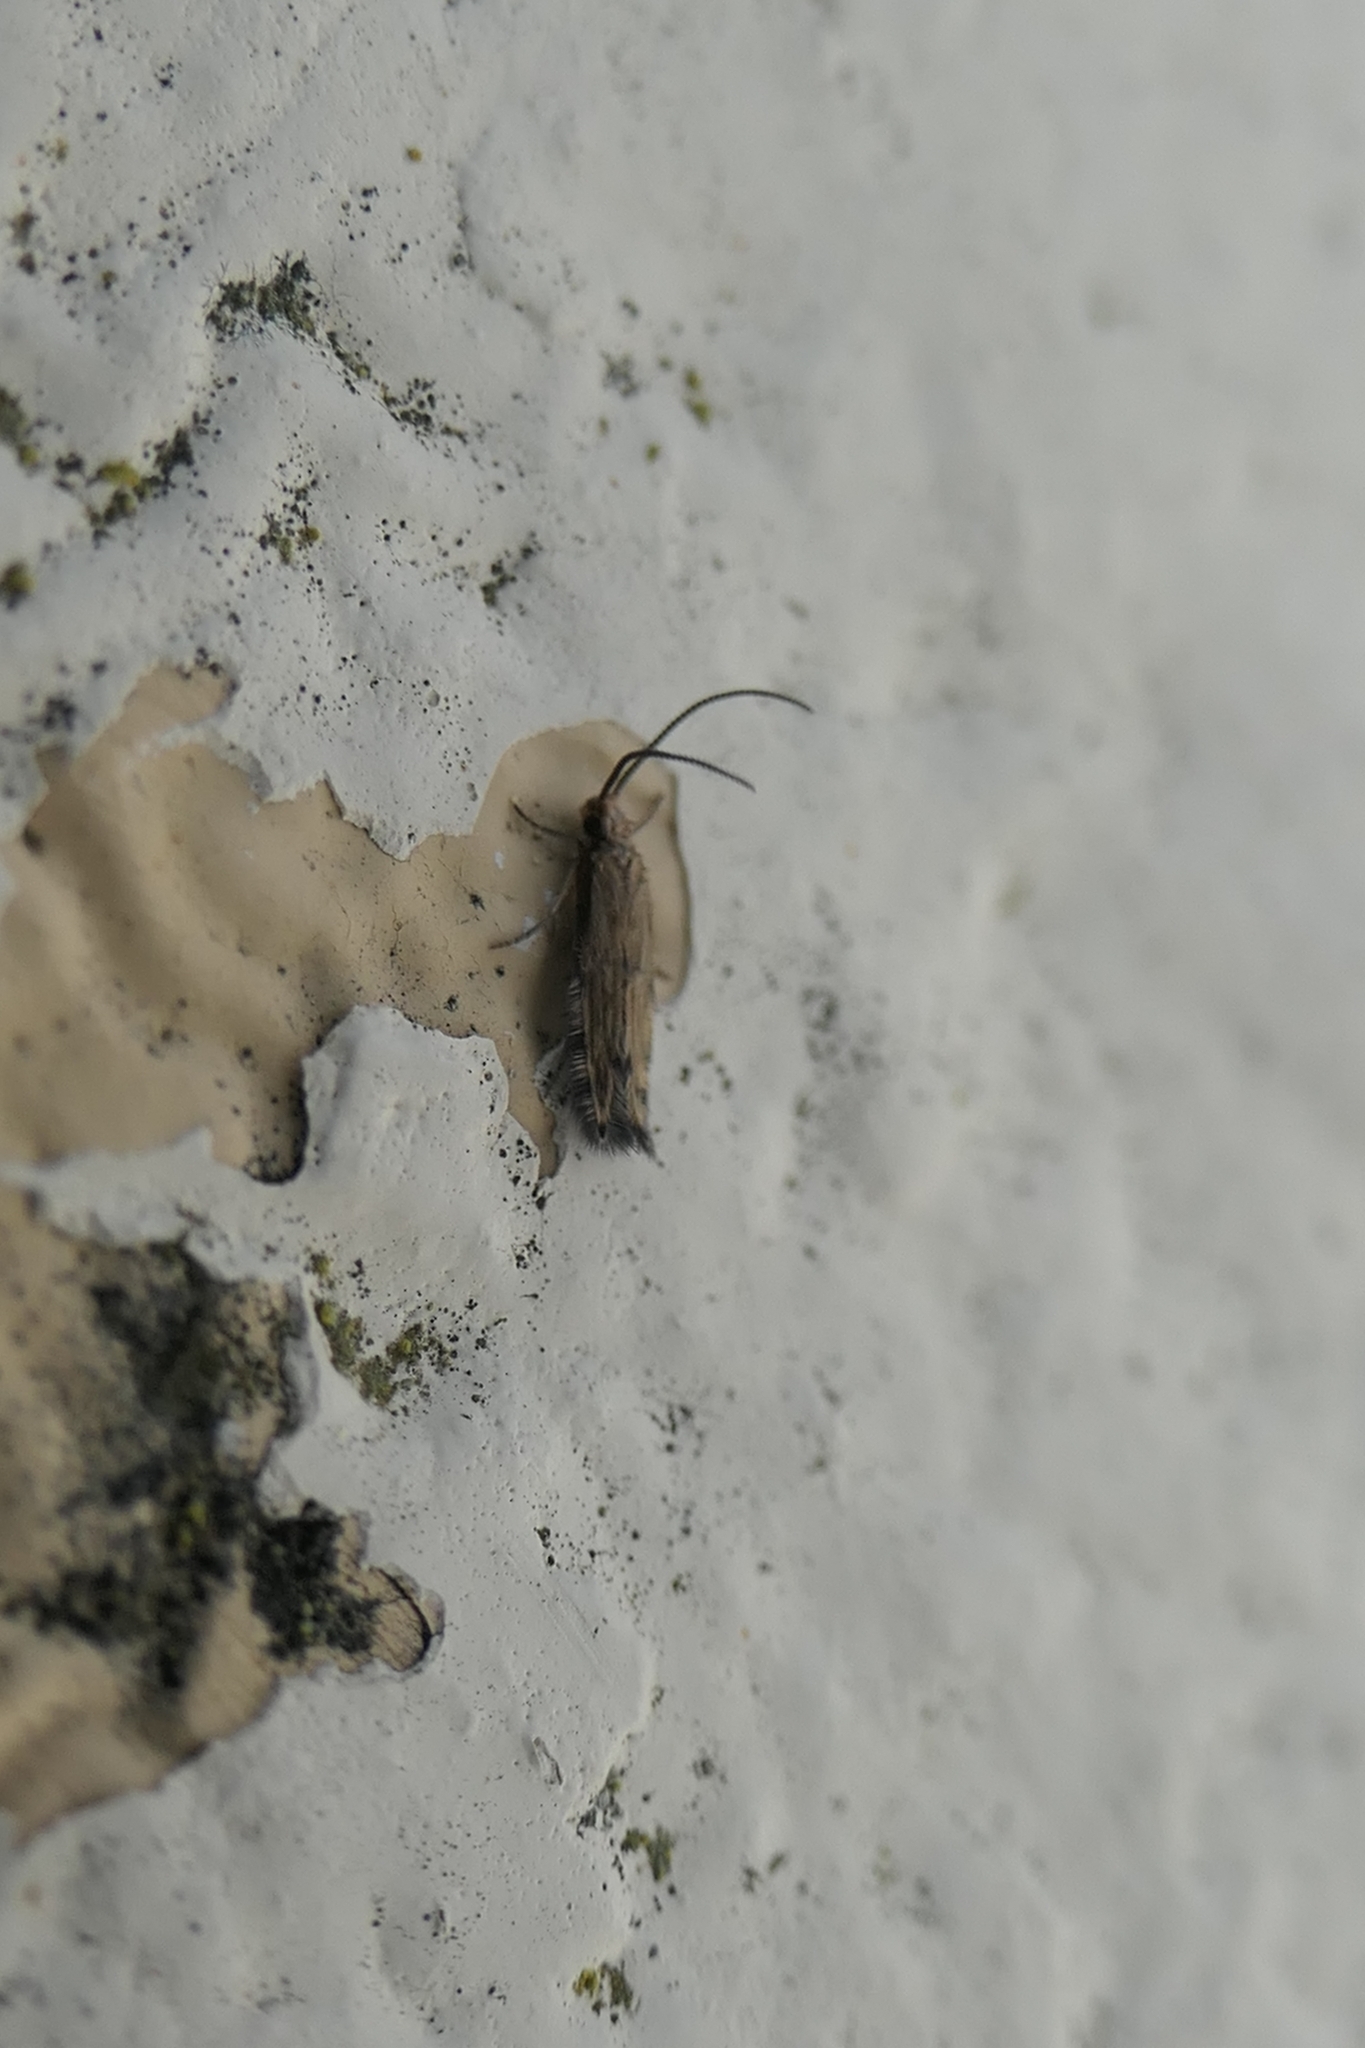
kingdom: Animalia
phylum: Arthropoda
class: Insecta
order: Trichoptera
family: Hydroptilidae
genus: Oxyethira
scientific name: Oxyethira albiceps
